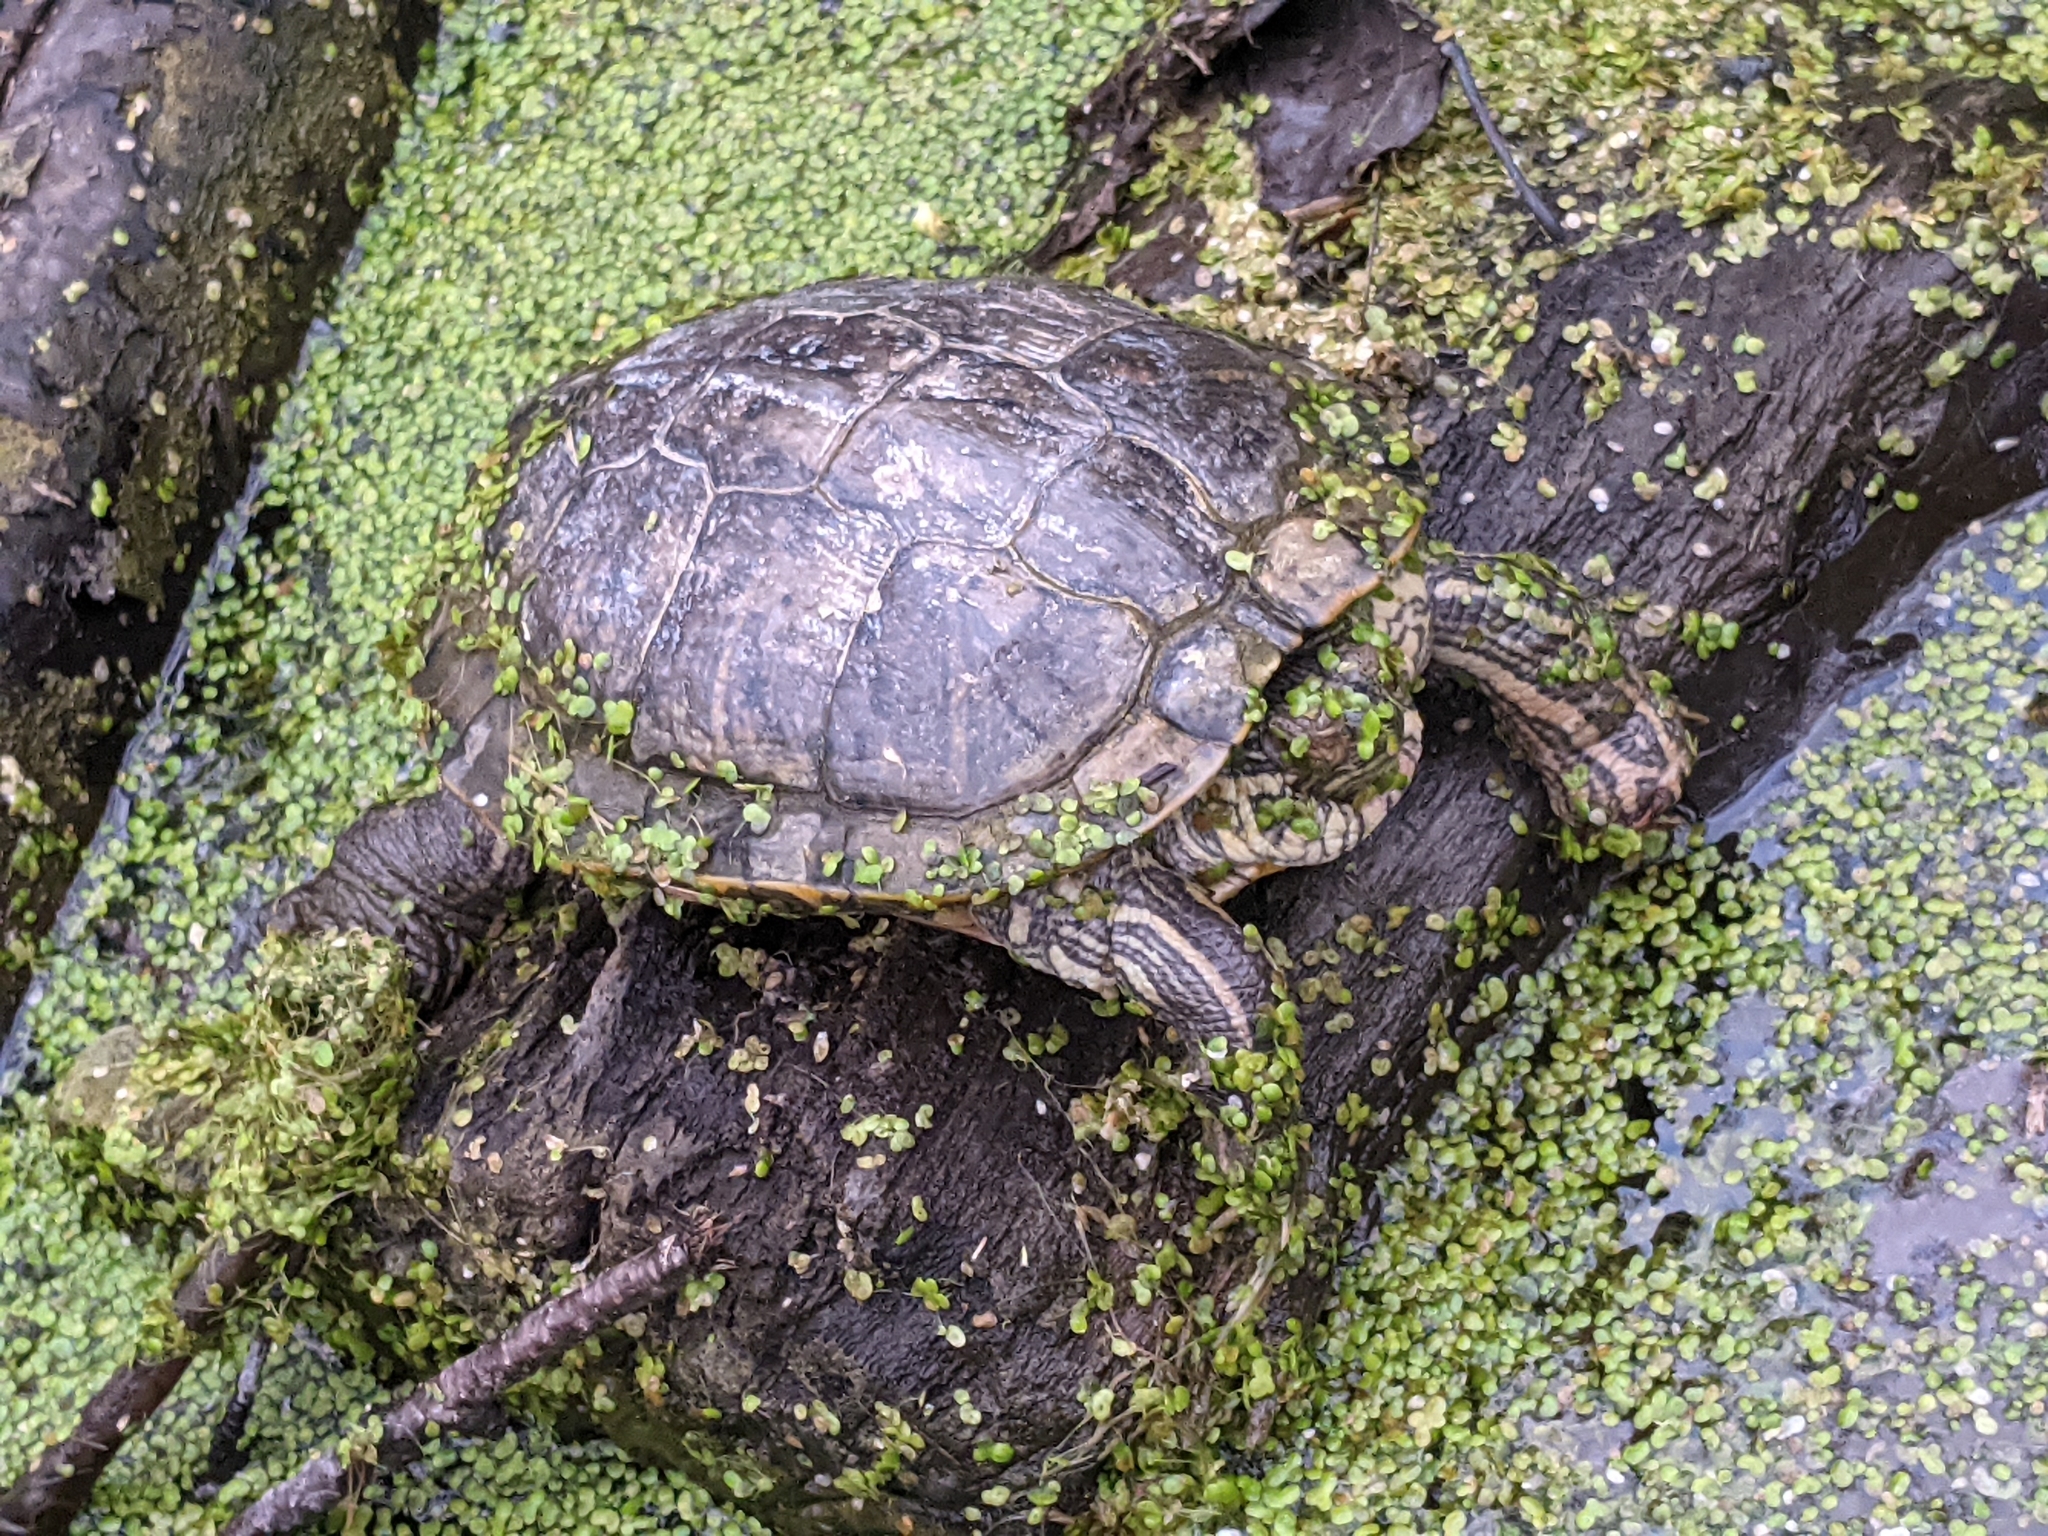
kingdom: Animalia
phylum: Chordata
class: Testudines
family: Emydidae
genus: Trachemys
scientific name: Trachemys scripta
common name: Slider
